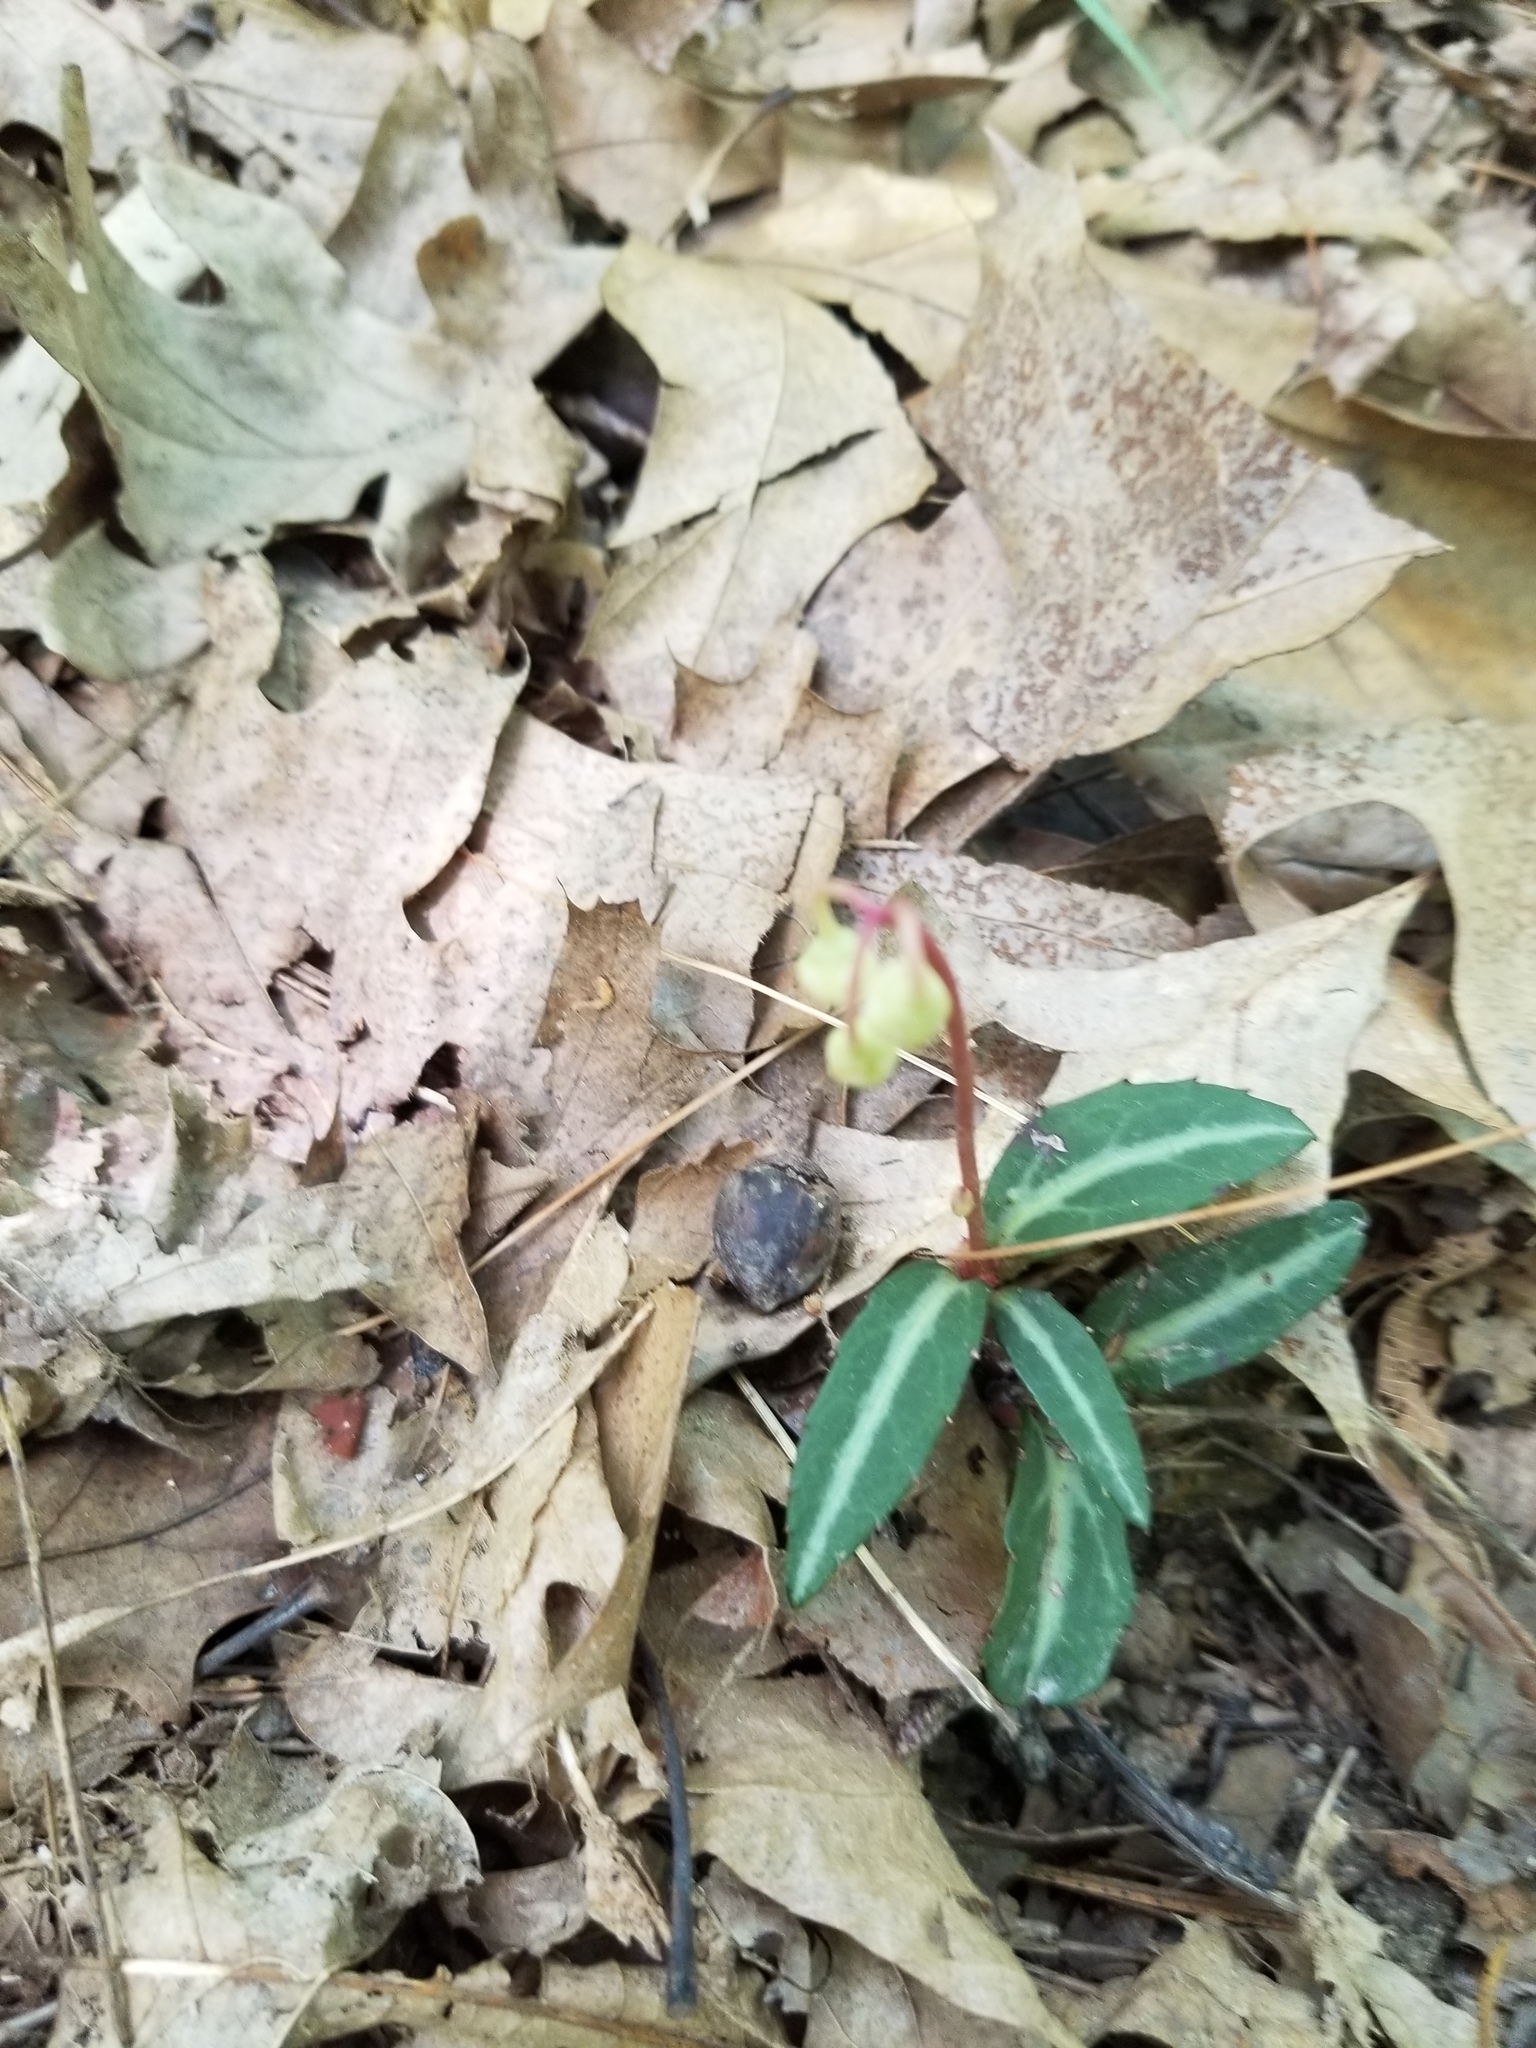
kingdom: Plantae
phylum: Tracheophyta
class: Magnoliopsida
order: Ericales
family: Ericaceae
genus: Chimaphila
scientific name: Chimaphila maculata
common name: Spotted pipsissewa
